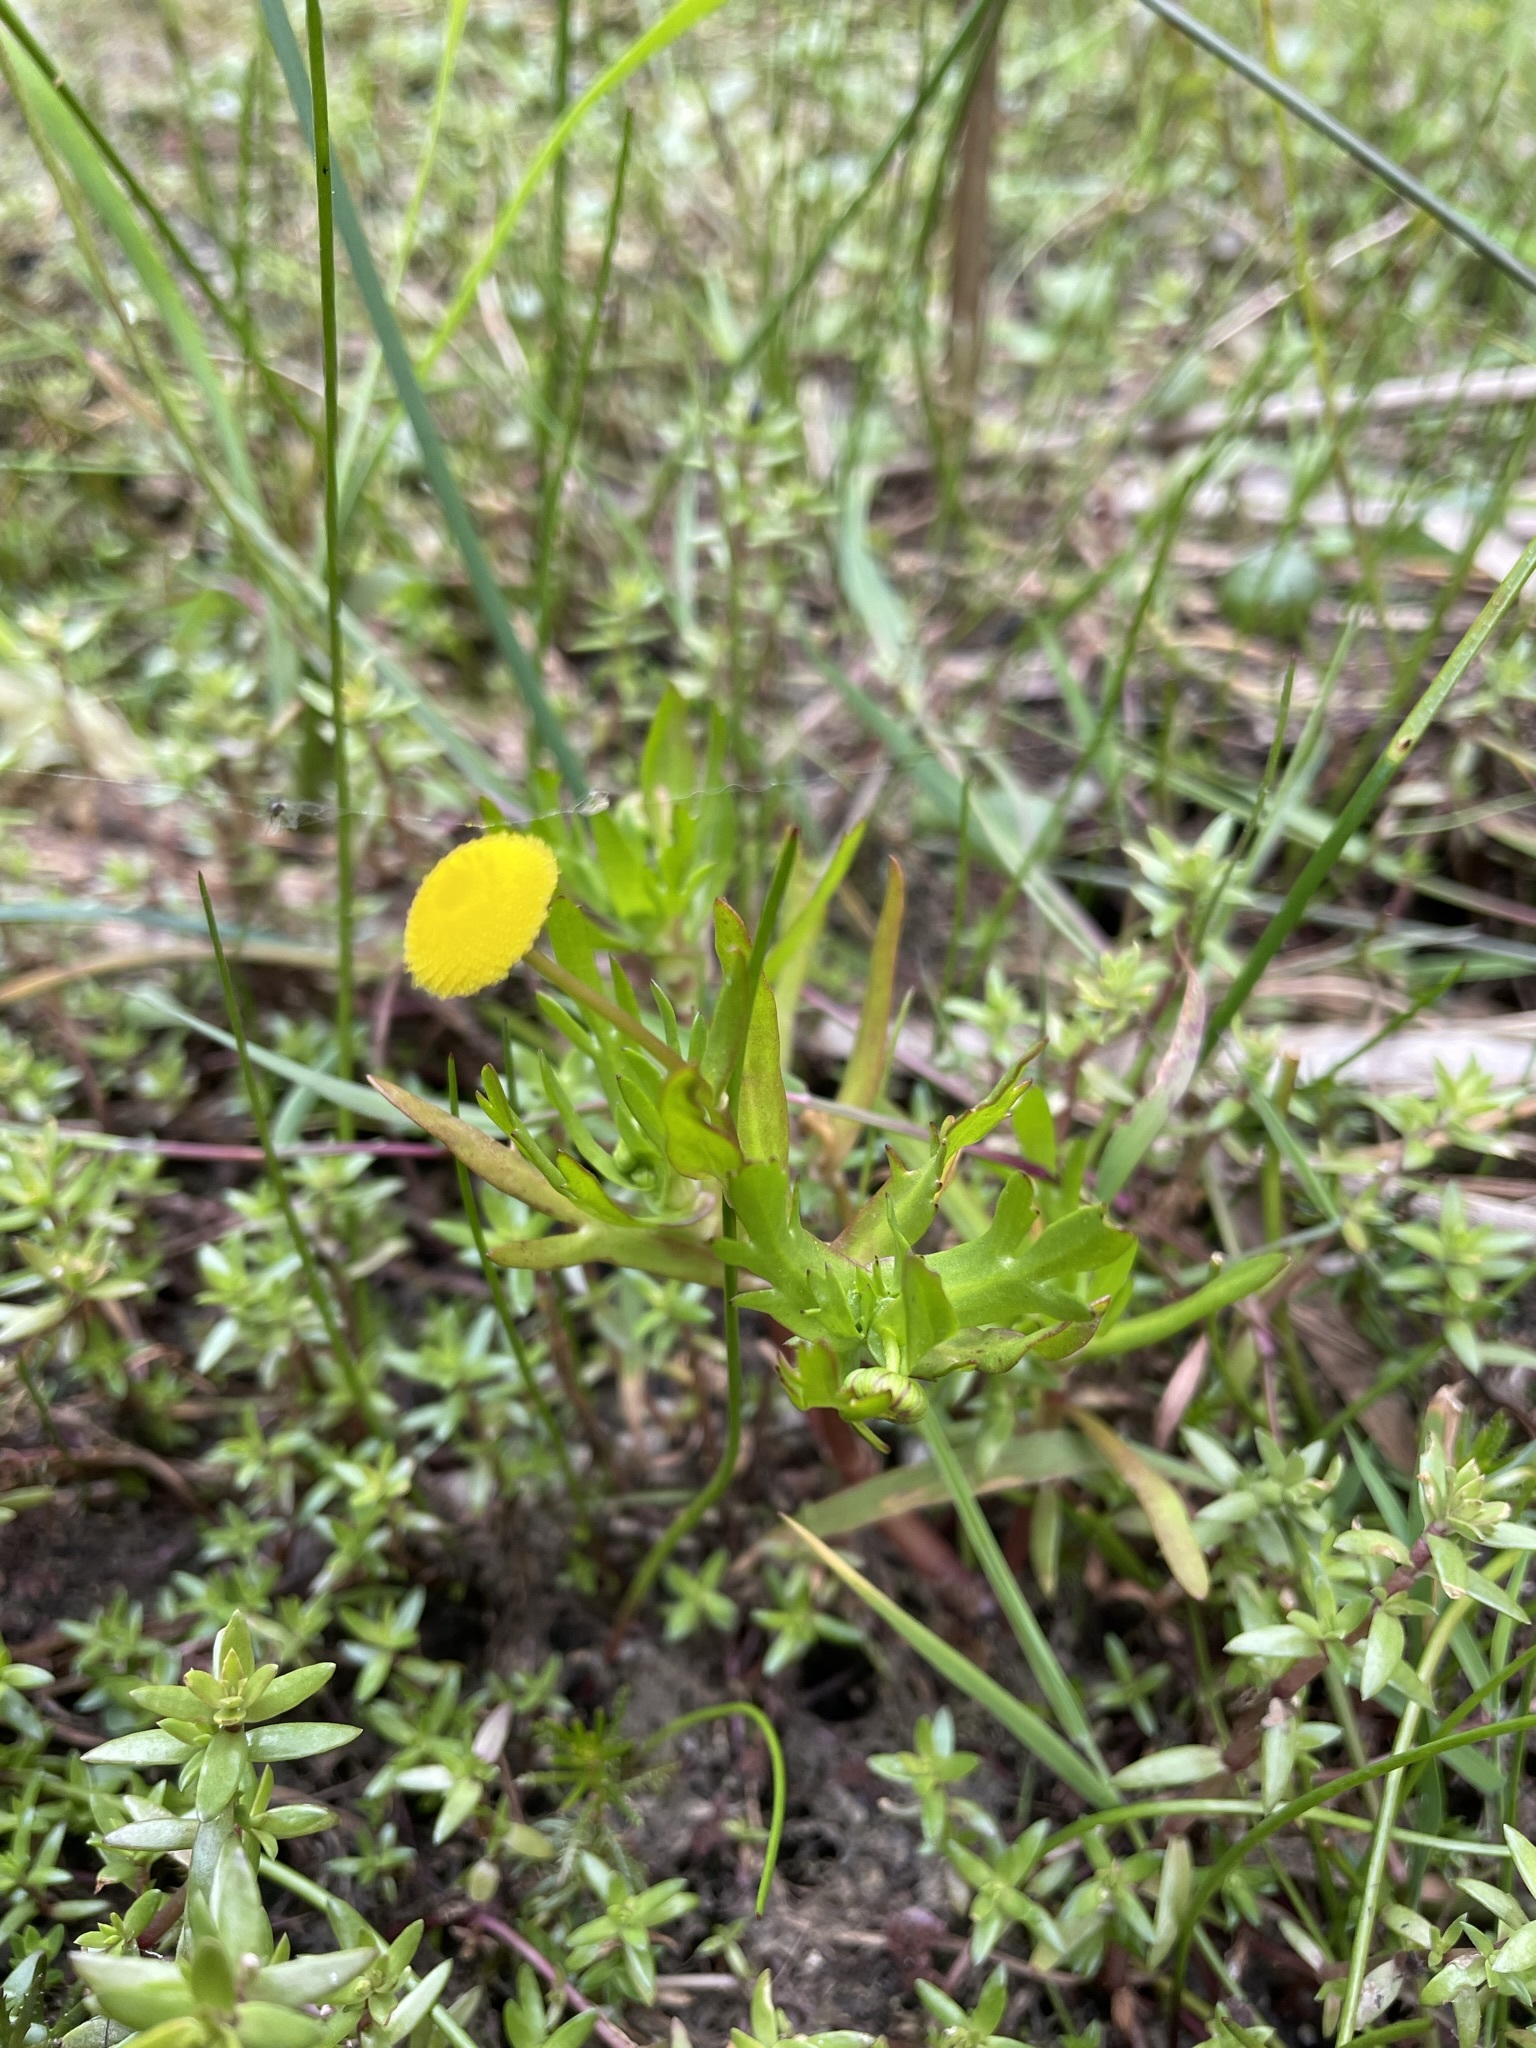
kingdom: Plantae
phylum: Tracheophyta
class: Magnoliopsida
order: Asterales
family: Asteraceae
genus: Cotula
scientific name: Cotula coronopifolia
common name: Buttonweed
